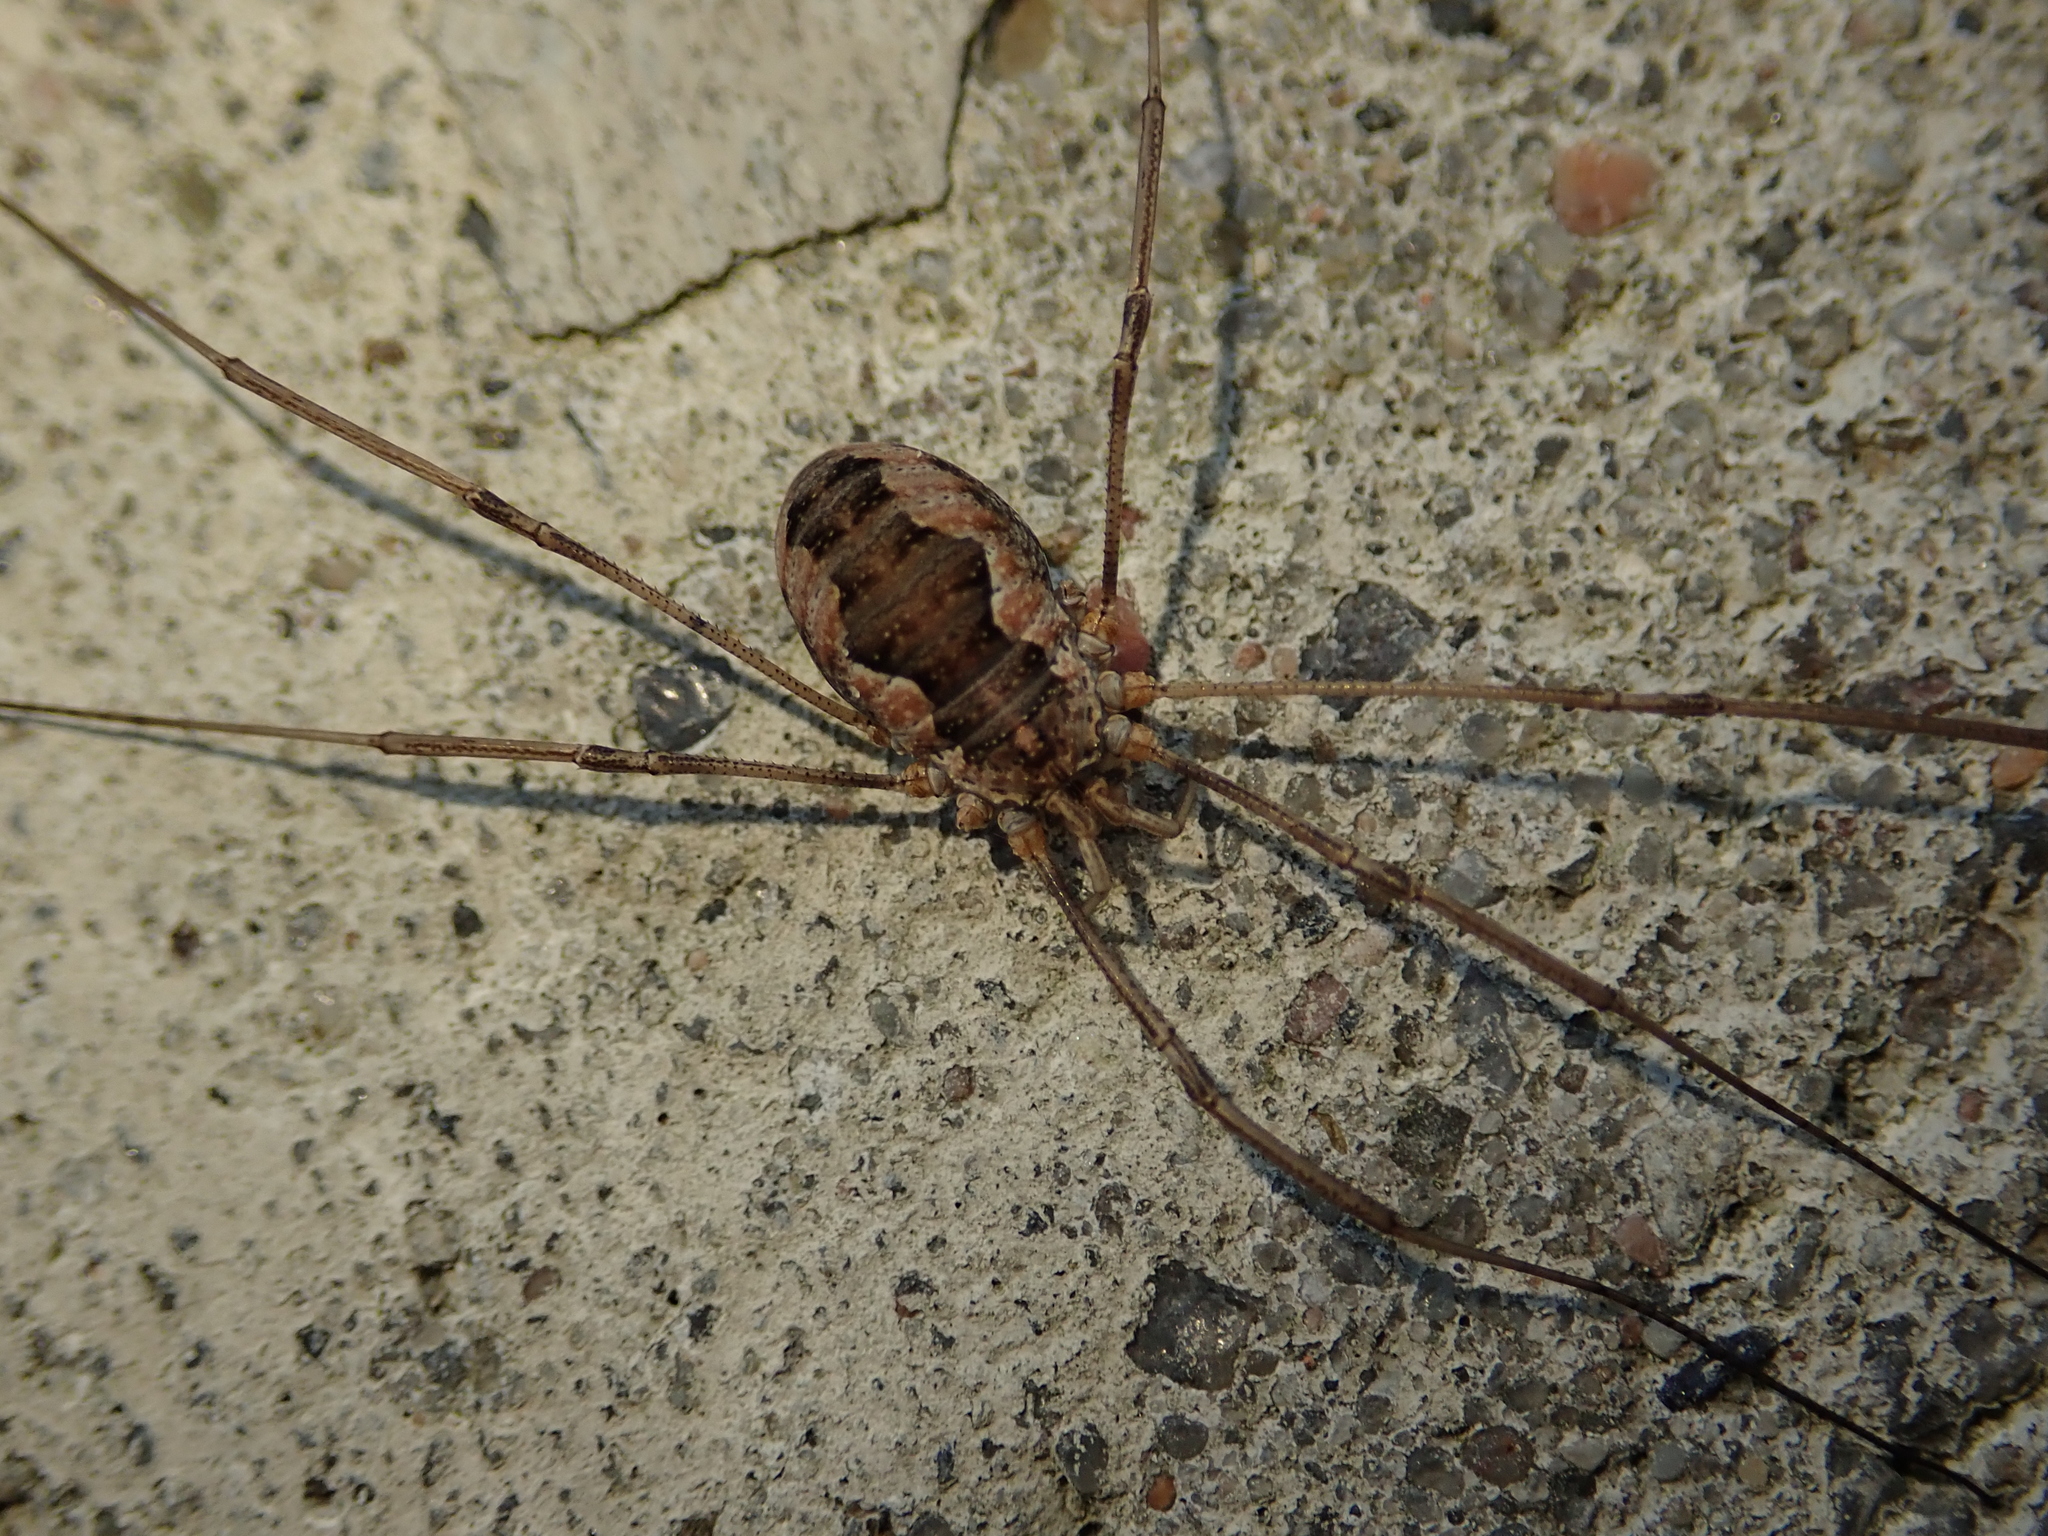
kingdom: Animalia
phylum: Arthropoda
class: Arachnida
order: Opiliones
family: Phalangiidae
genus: Phalangium
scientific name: Phalangium opilio
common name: Daddy longleg
